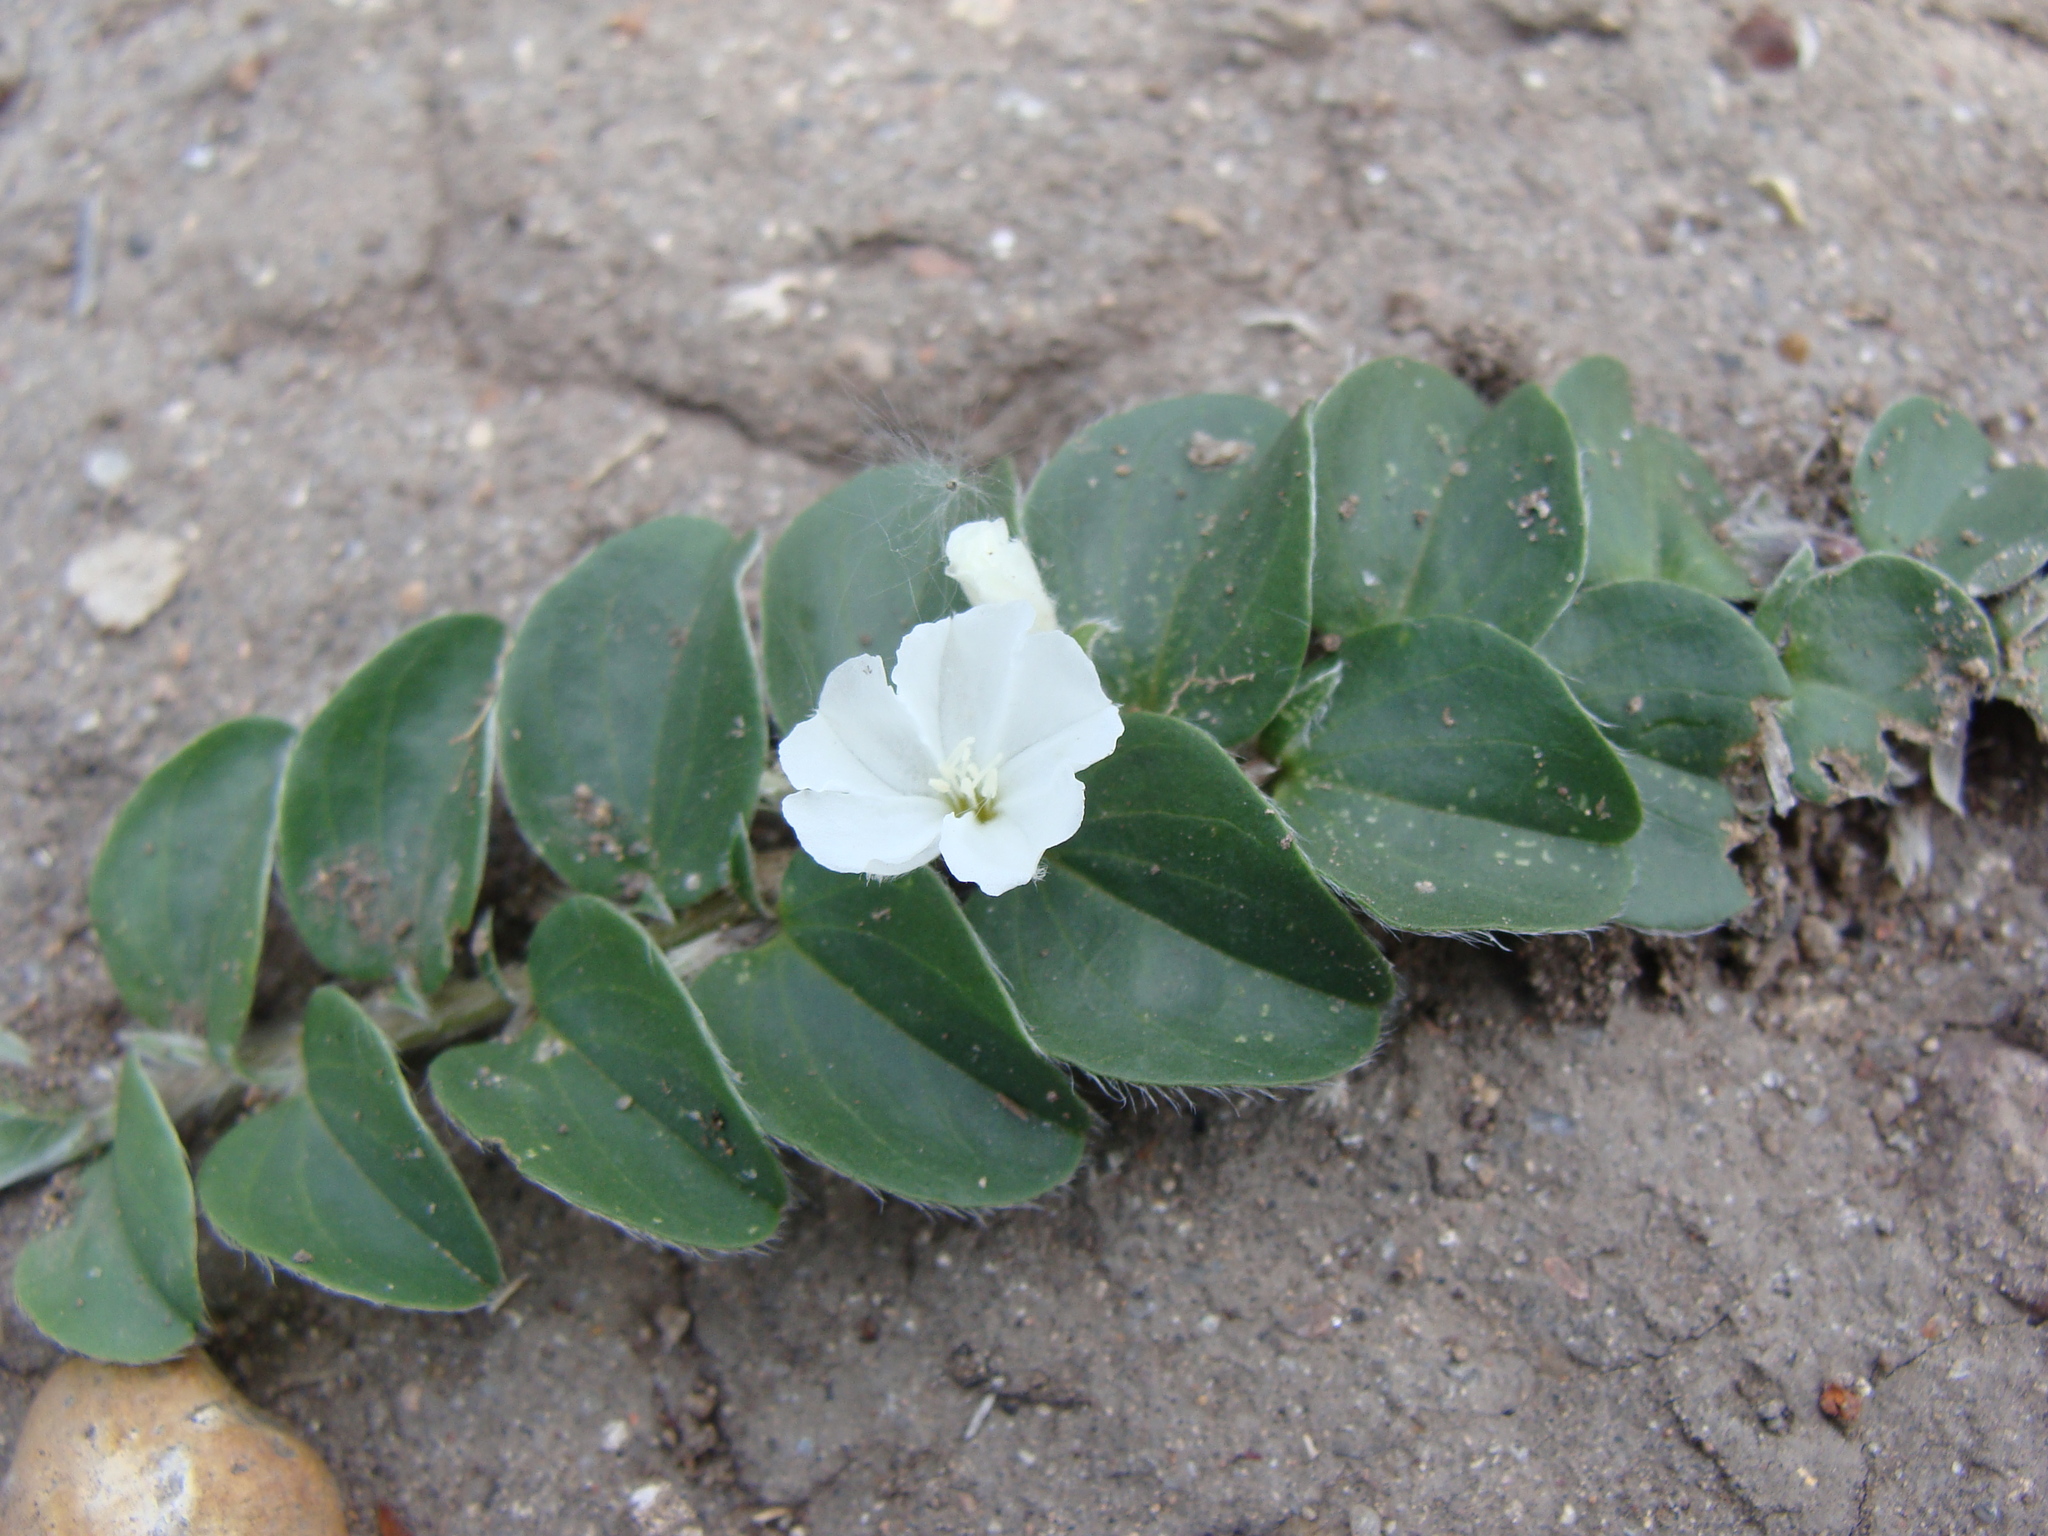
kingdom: Plantae
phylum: Tracheophyta
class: Magnoliopsida
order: Solanales
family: Convolvulaceae
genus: Evolvulus
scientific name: Evolvulus prostratus
